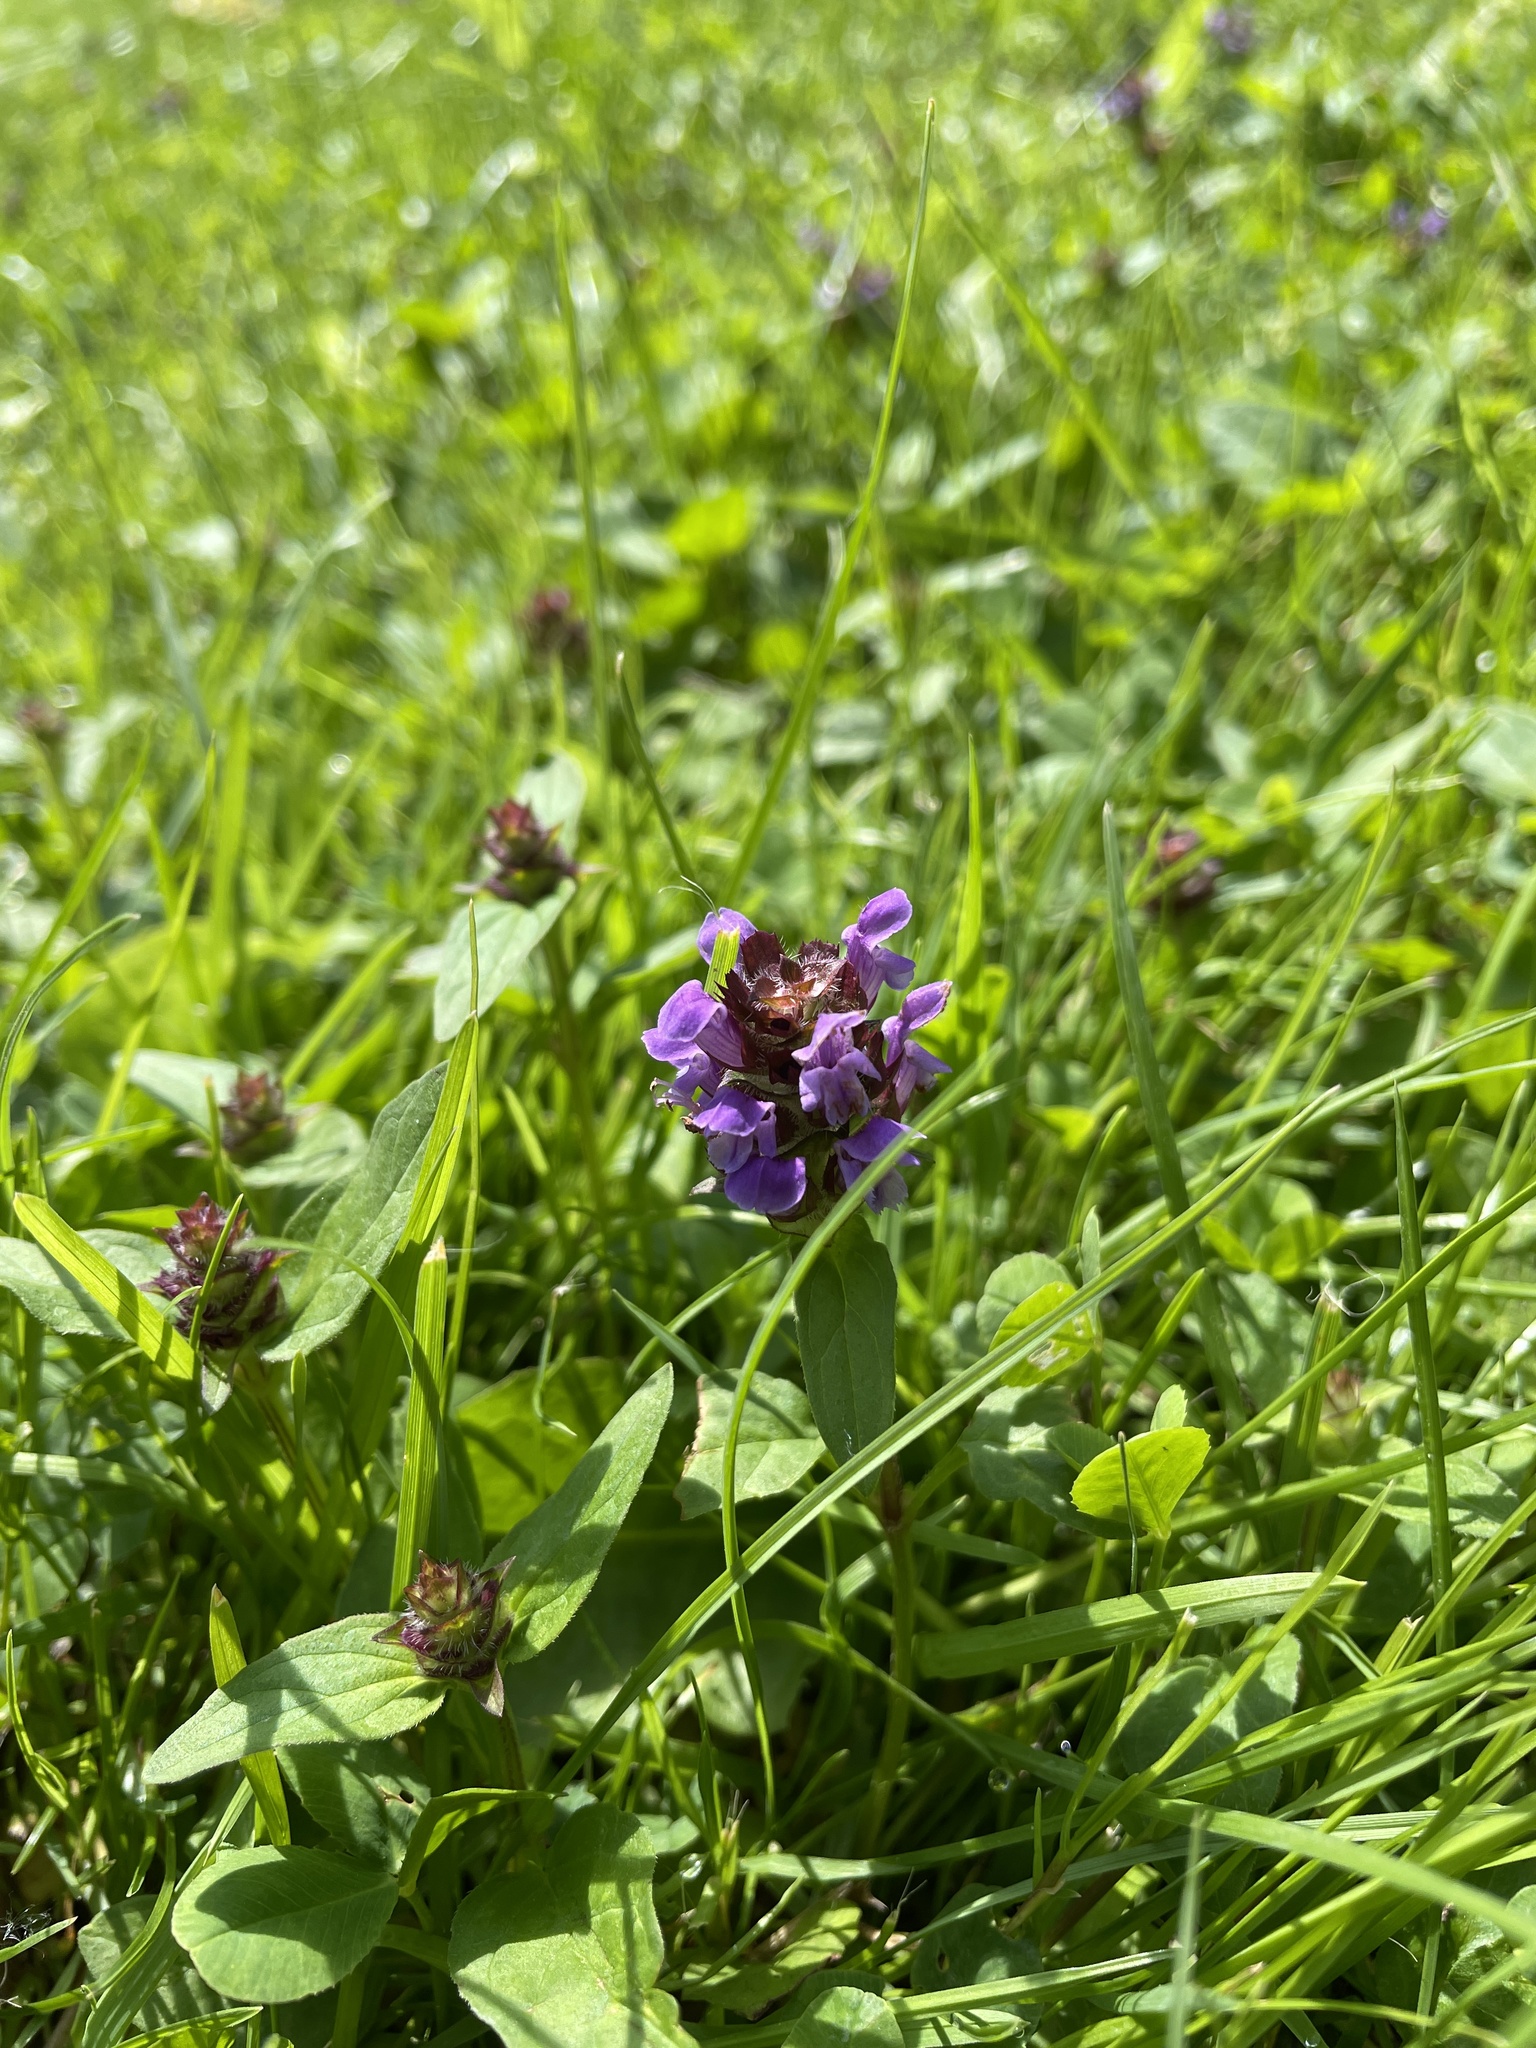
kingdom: Plantae
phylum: Tracheophyta
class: Magnoliopsida
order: Lamiales
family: Lamiaceae
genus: Prunella
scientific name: Prunella vulgaris
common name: Heal-all
